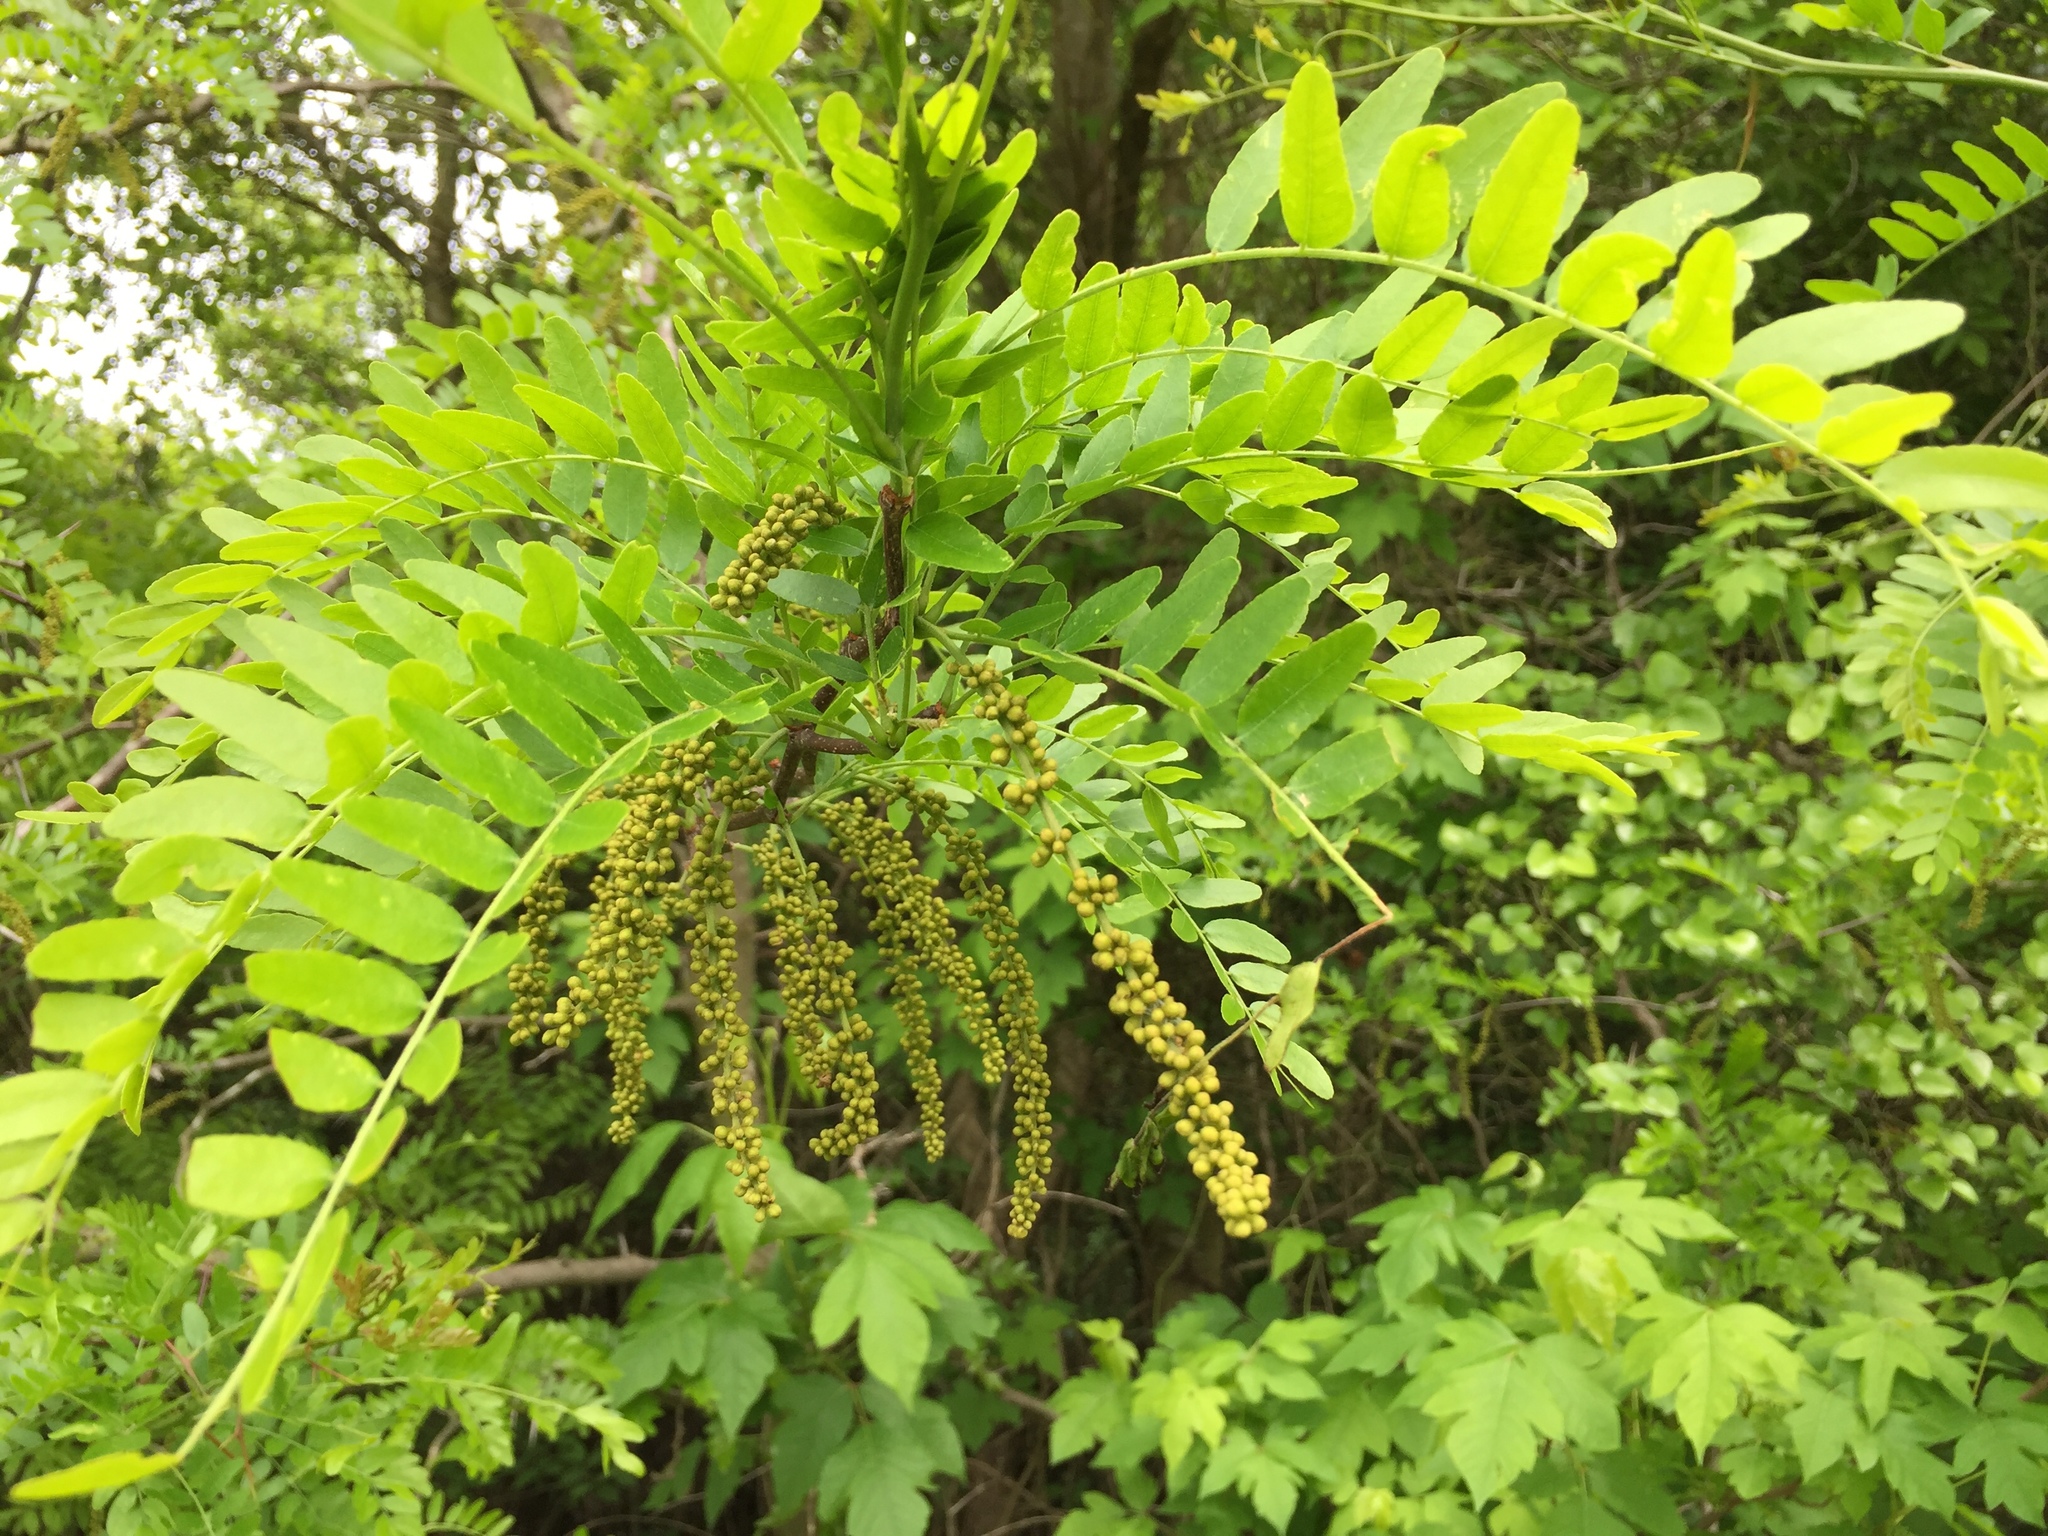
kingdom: Plantae
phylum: Tracheophyta
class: Magnoliopsida
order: Fabales
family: Fabaceae
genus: Gleditsia
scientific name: Gleditsia triacanthos
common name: Common honeylocust
